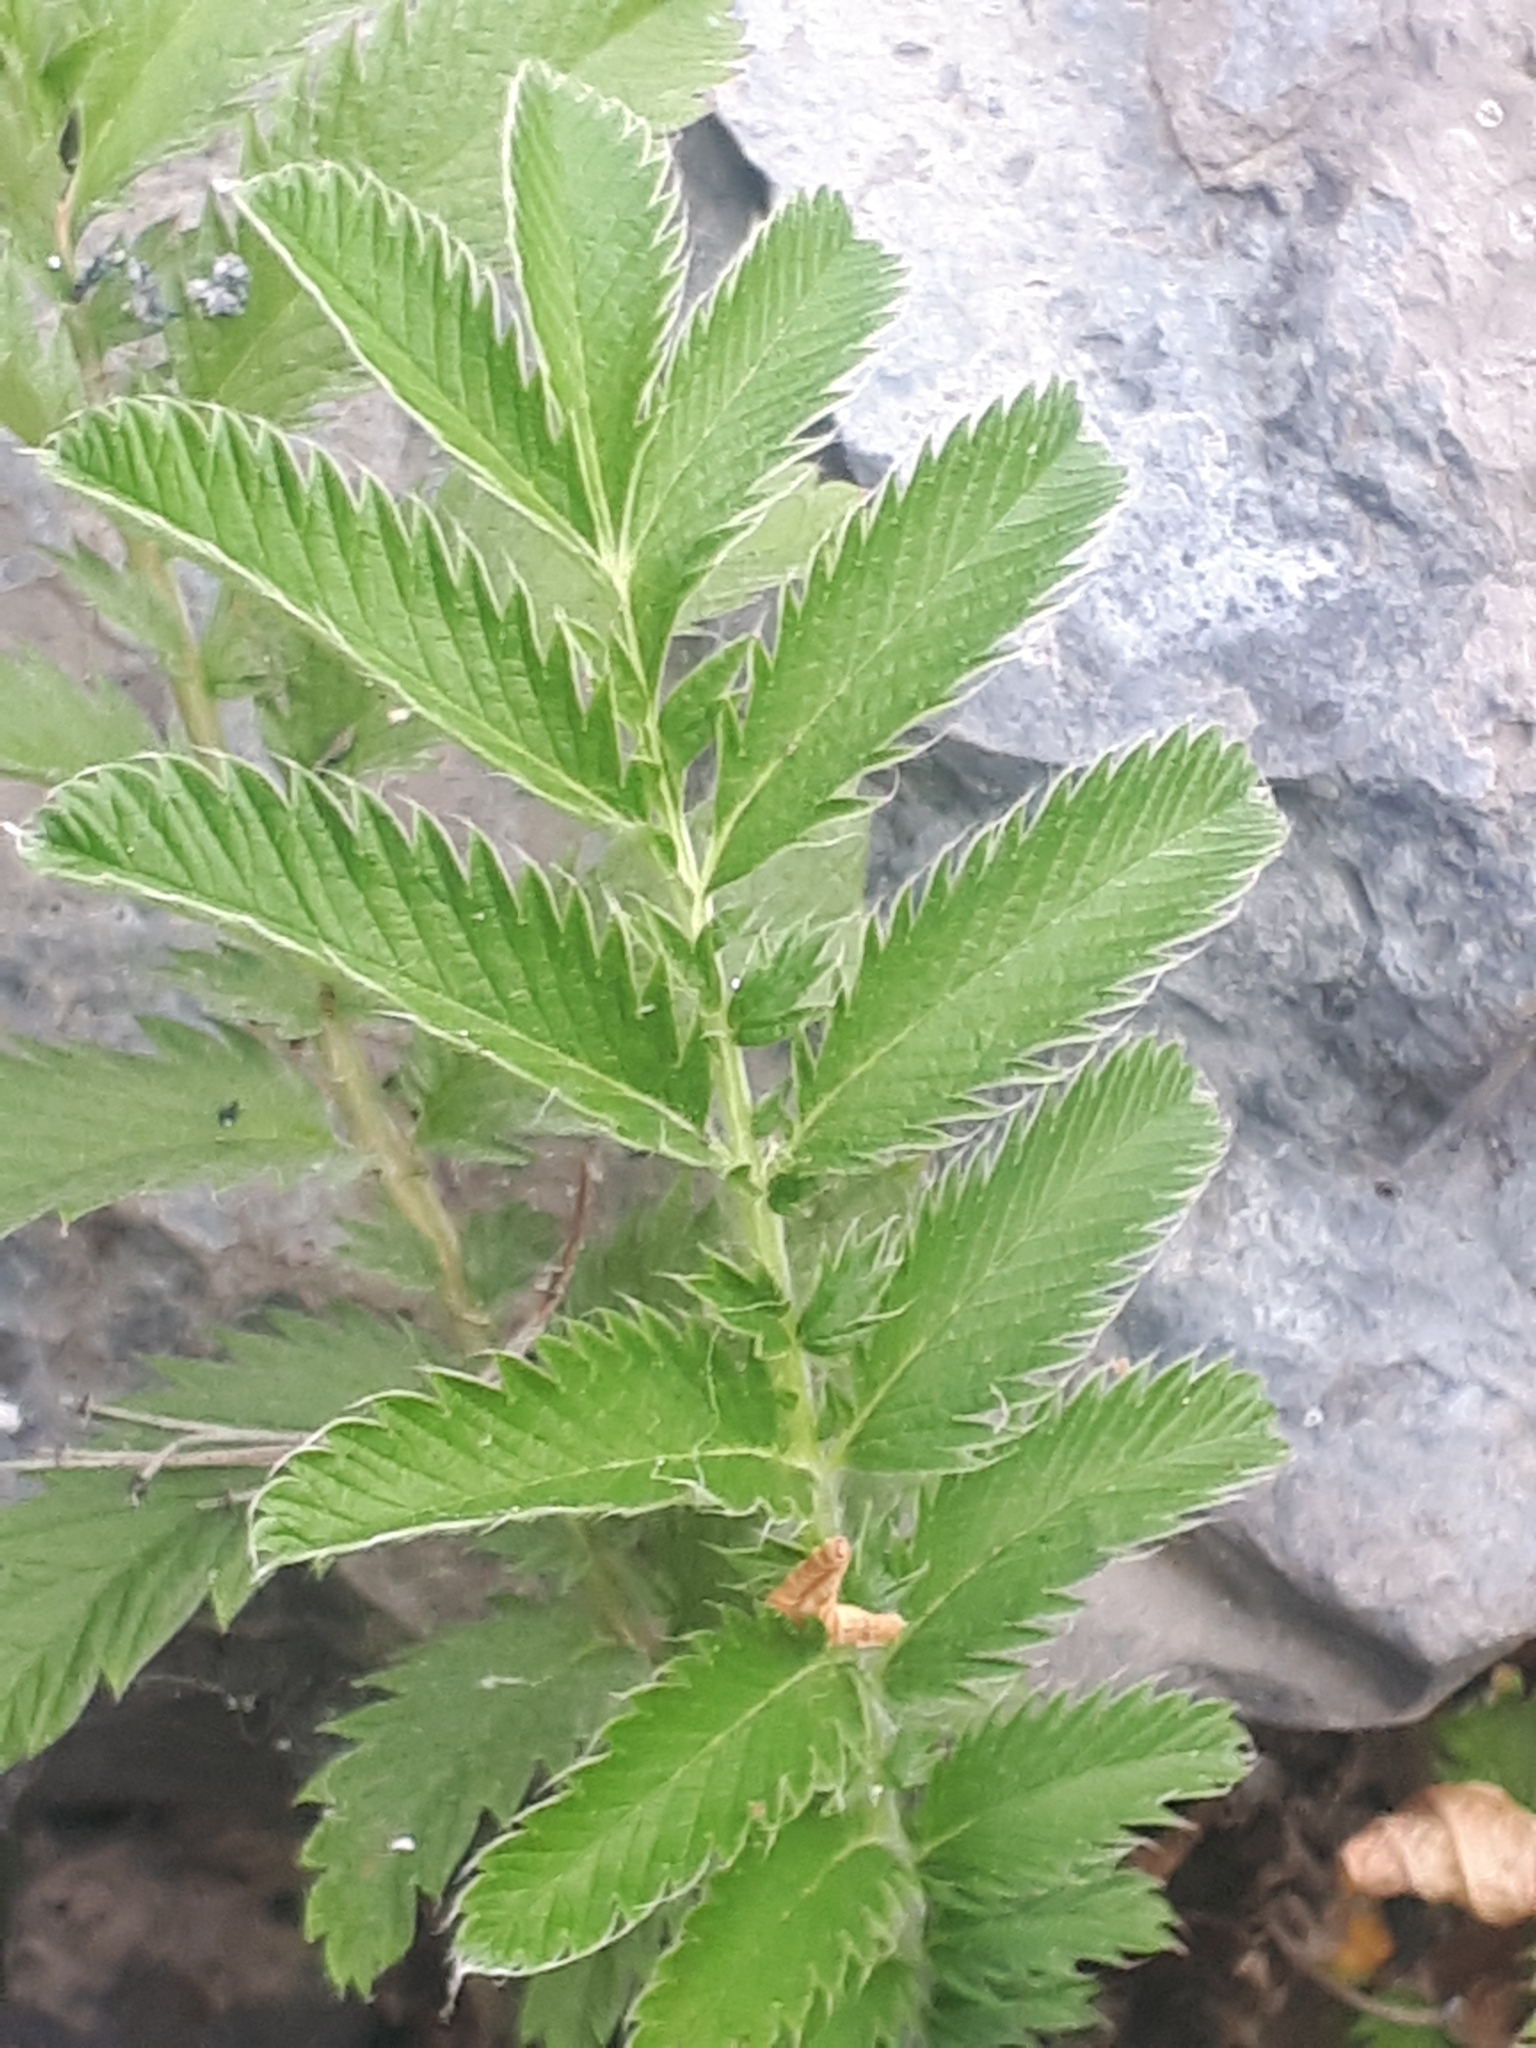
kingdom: Plantae
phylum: Tracheophyta
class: Magnoliopsida
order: Rosales
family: Rosaceae
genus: Argentina
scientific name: Argentina anserina
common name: Common silverweed
